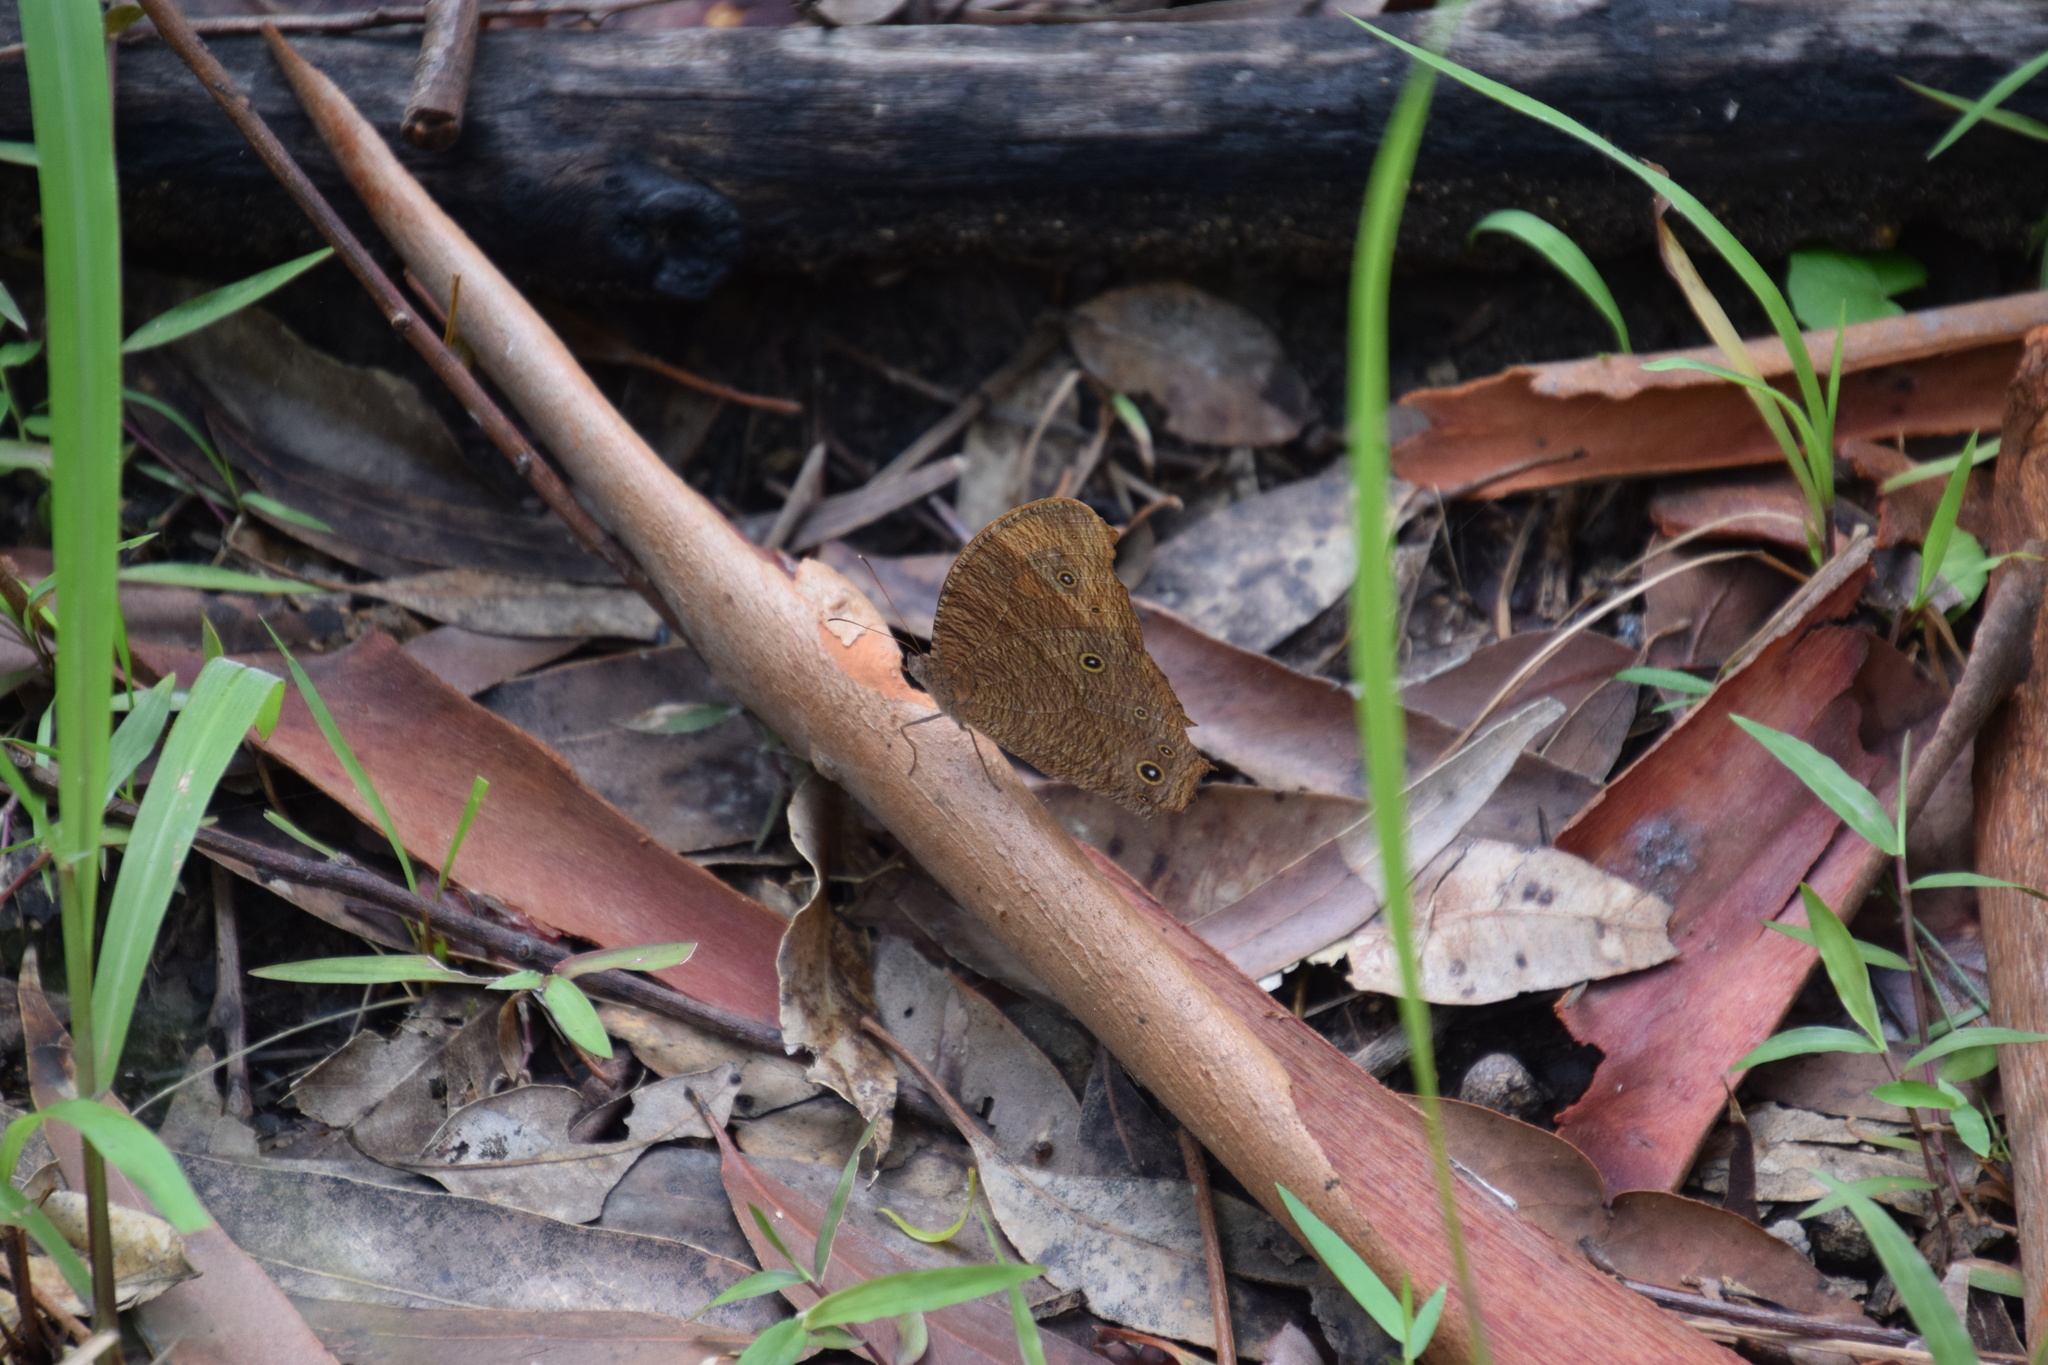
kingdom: Animalia
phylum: Arthropoda
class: Insecta
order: Lepidoptera
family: Nymphalidae
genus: Melanitis
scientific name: Melanitis leda
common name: Twilight brown
